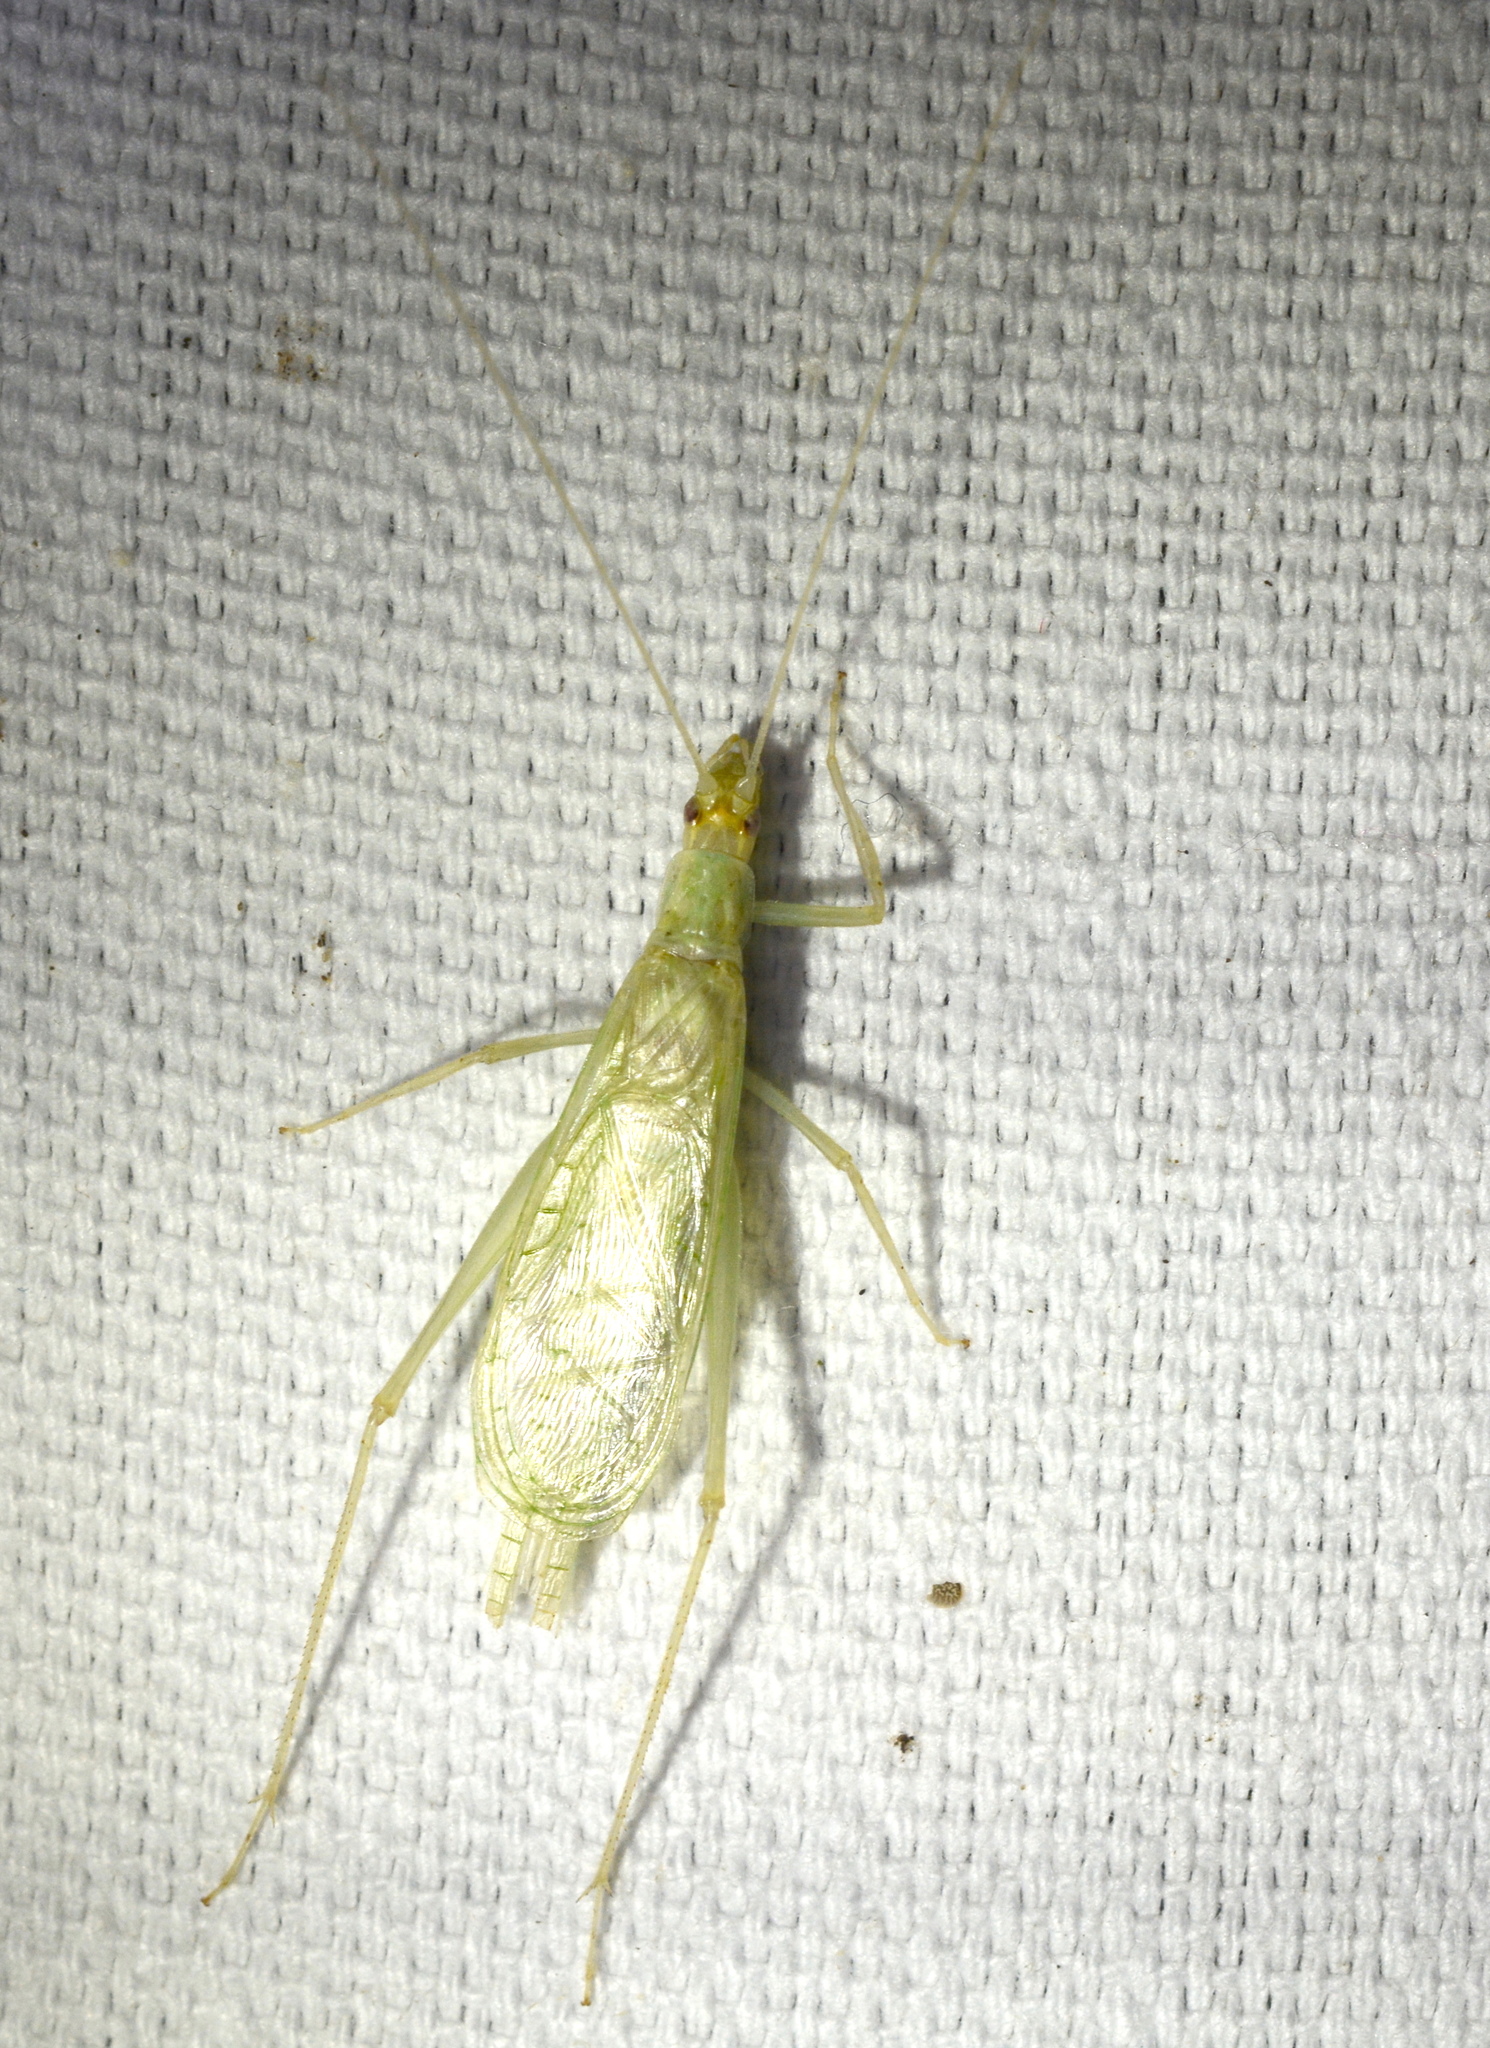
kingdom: Animalia
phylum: Arthropoda
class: Insecta
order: Orthoptera
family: Gryllidae
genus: Oecanthus
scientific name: Oecanthus exclamationis
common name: Davis's tree cricket
